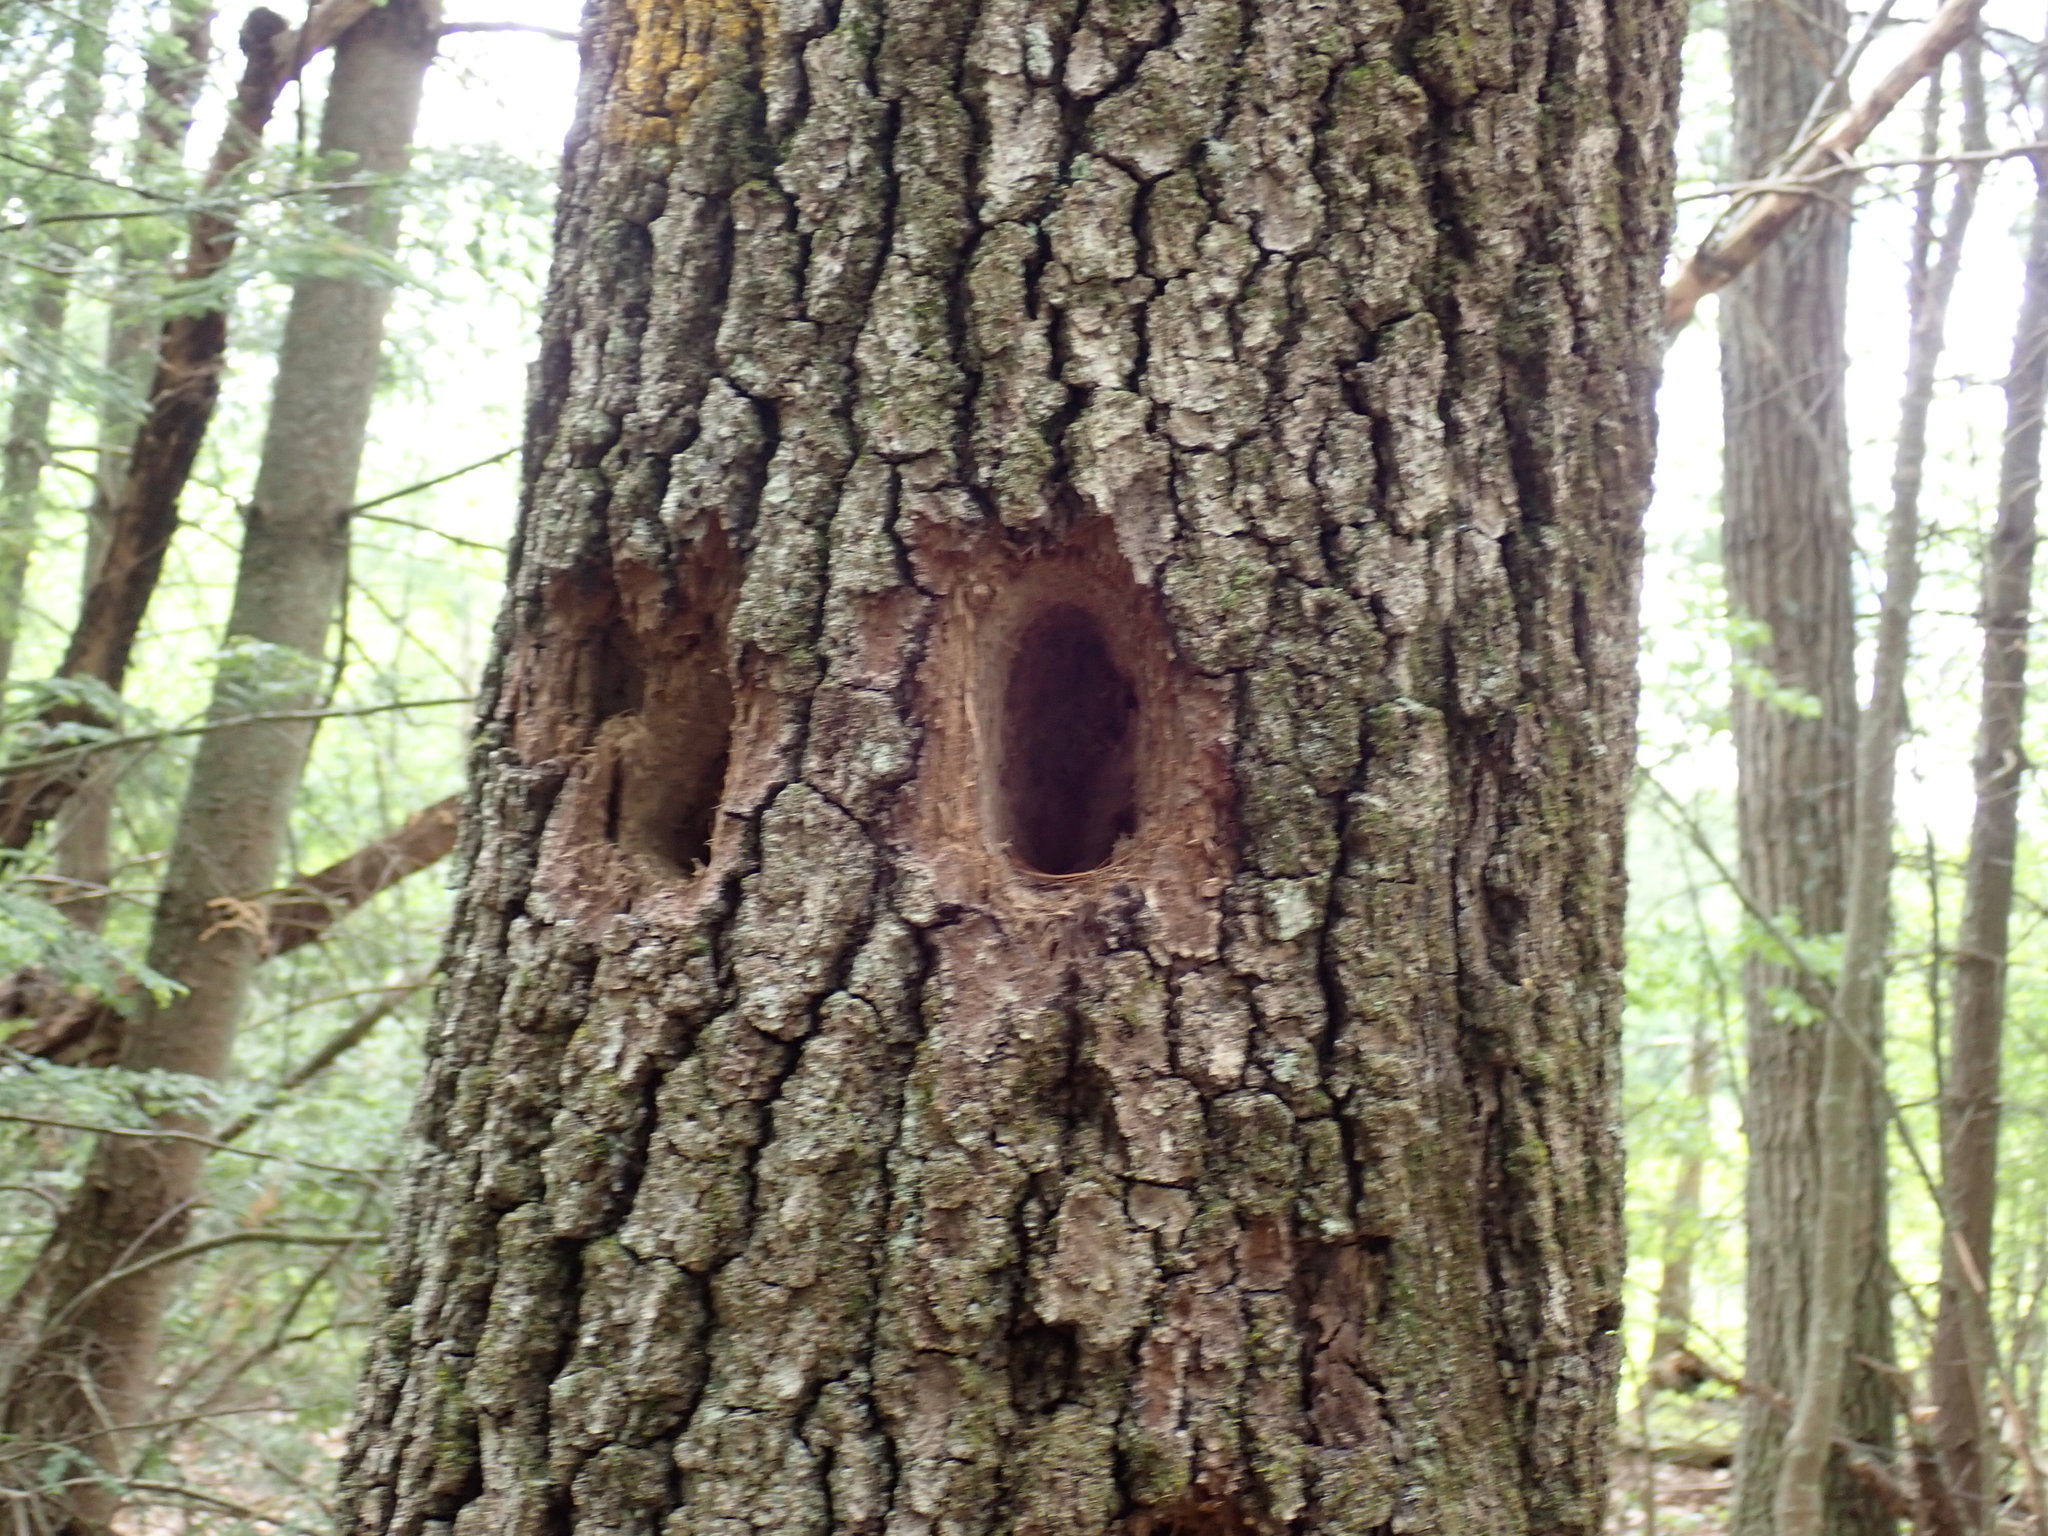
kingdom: Animalia
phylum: Chordata
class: Aves
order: Piciformes
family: Picidae
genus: Dryocopus
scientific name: Dryocopus pileatus
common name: Pileated woodpecker
